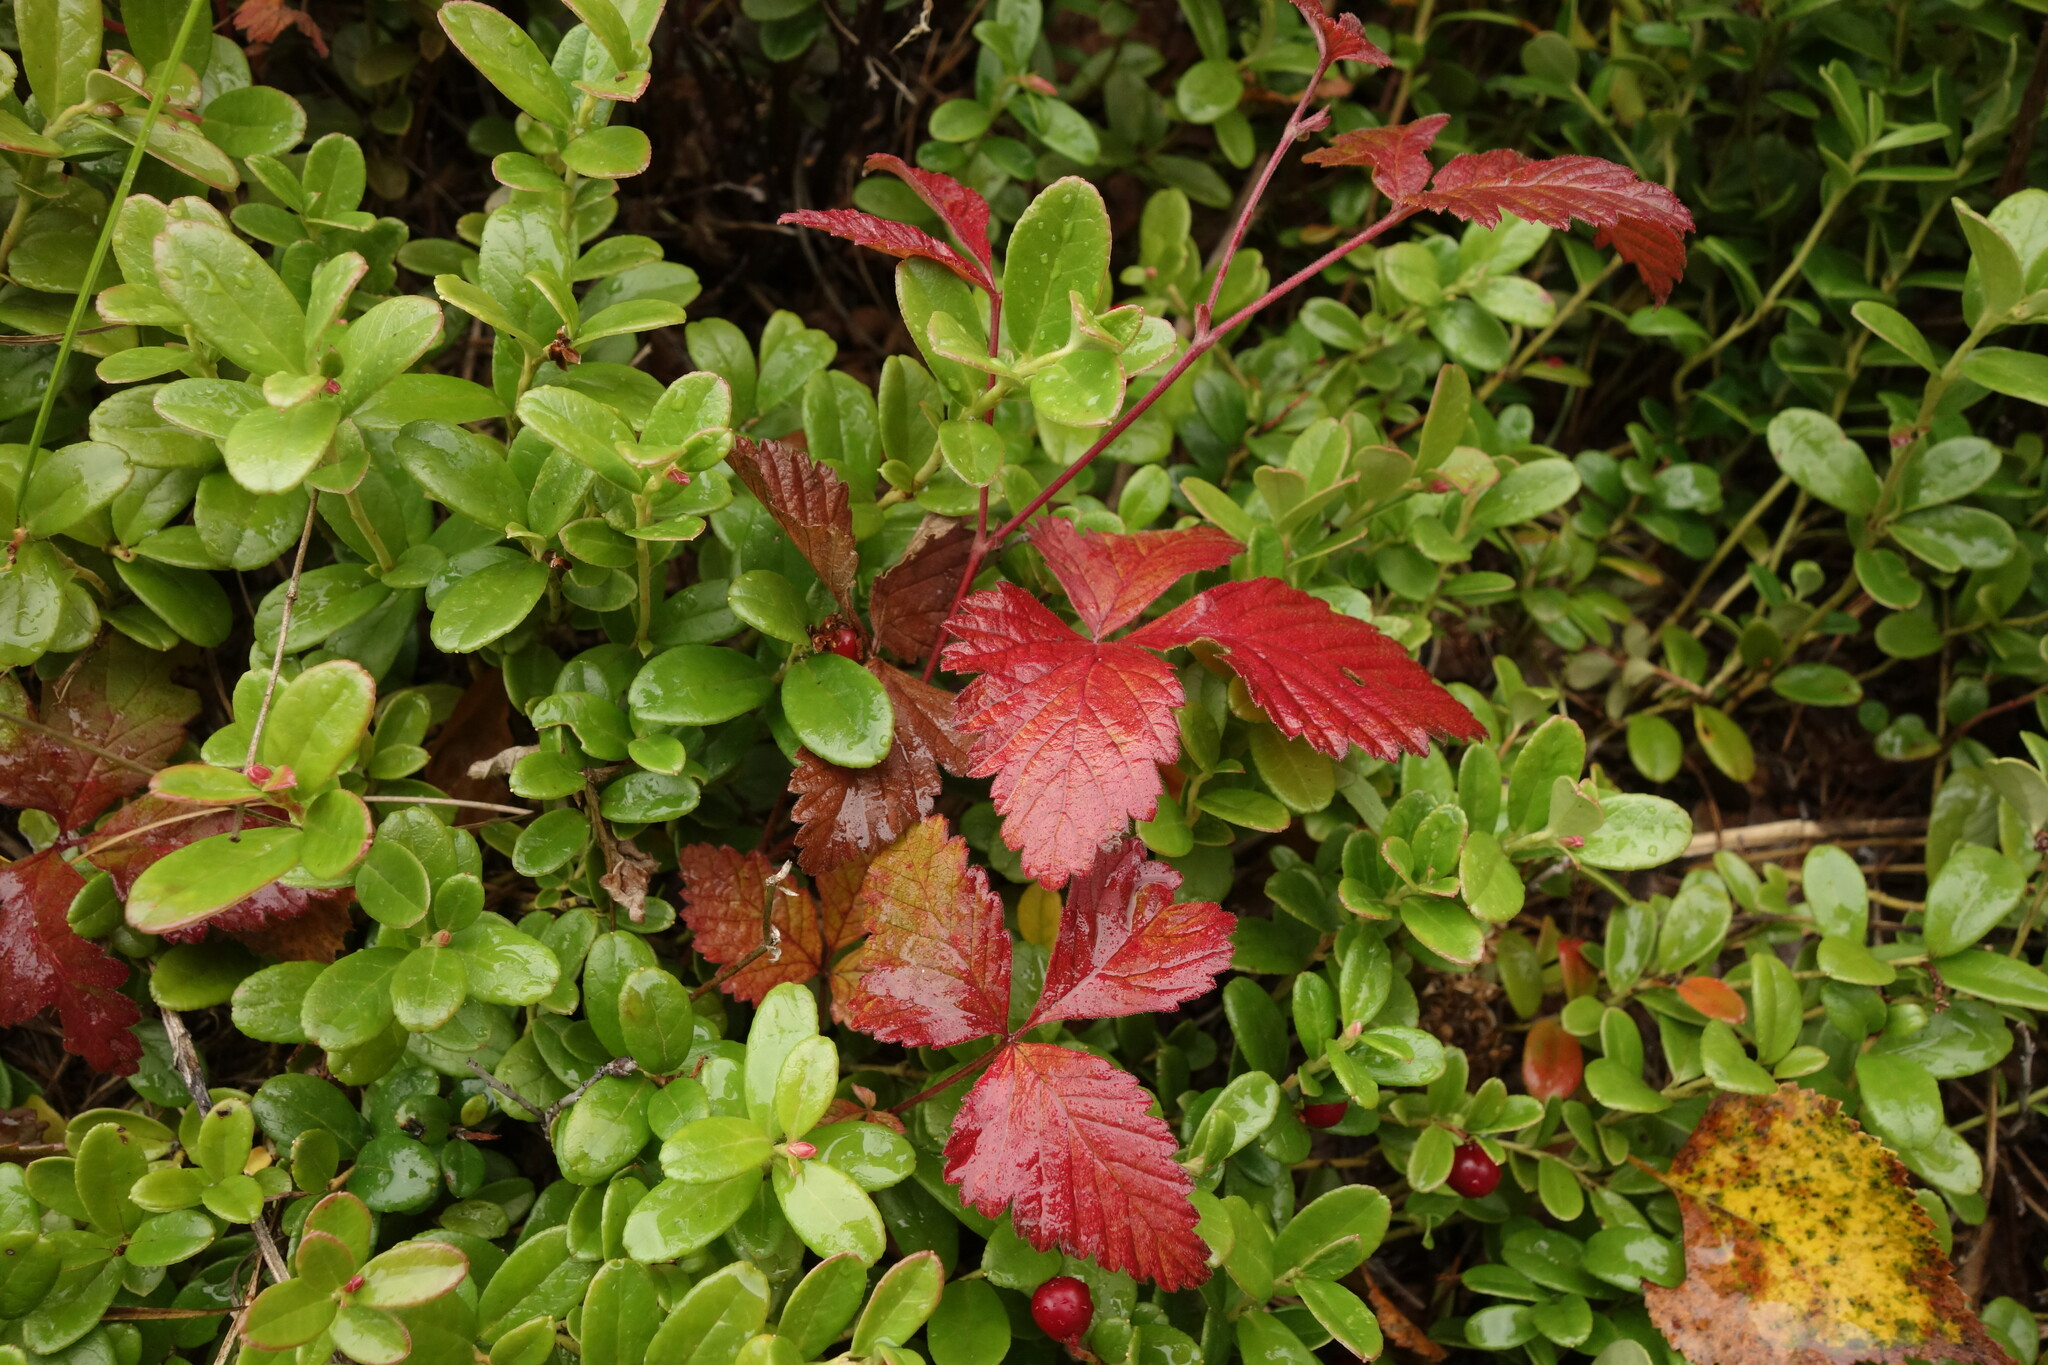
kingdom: Plantae
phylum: Tracheophyta
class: Magnoliopsida
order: Rosales
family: Rosaceae
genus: Rubus
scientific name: Rubus arcticus
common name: Arctic bramble
